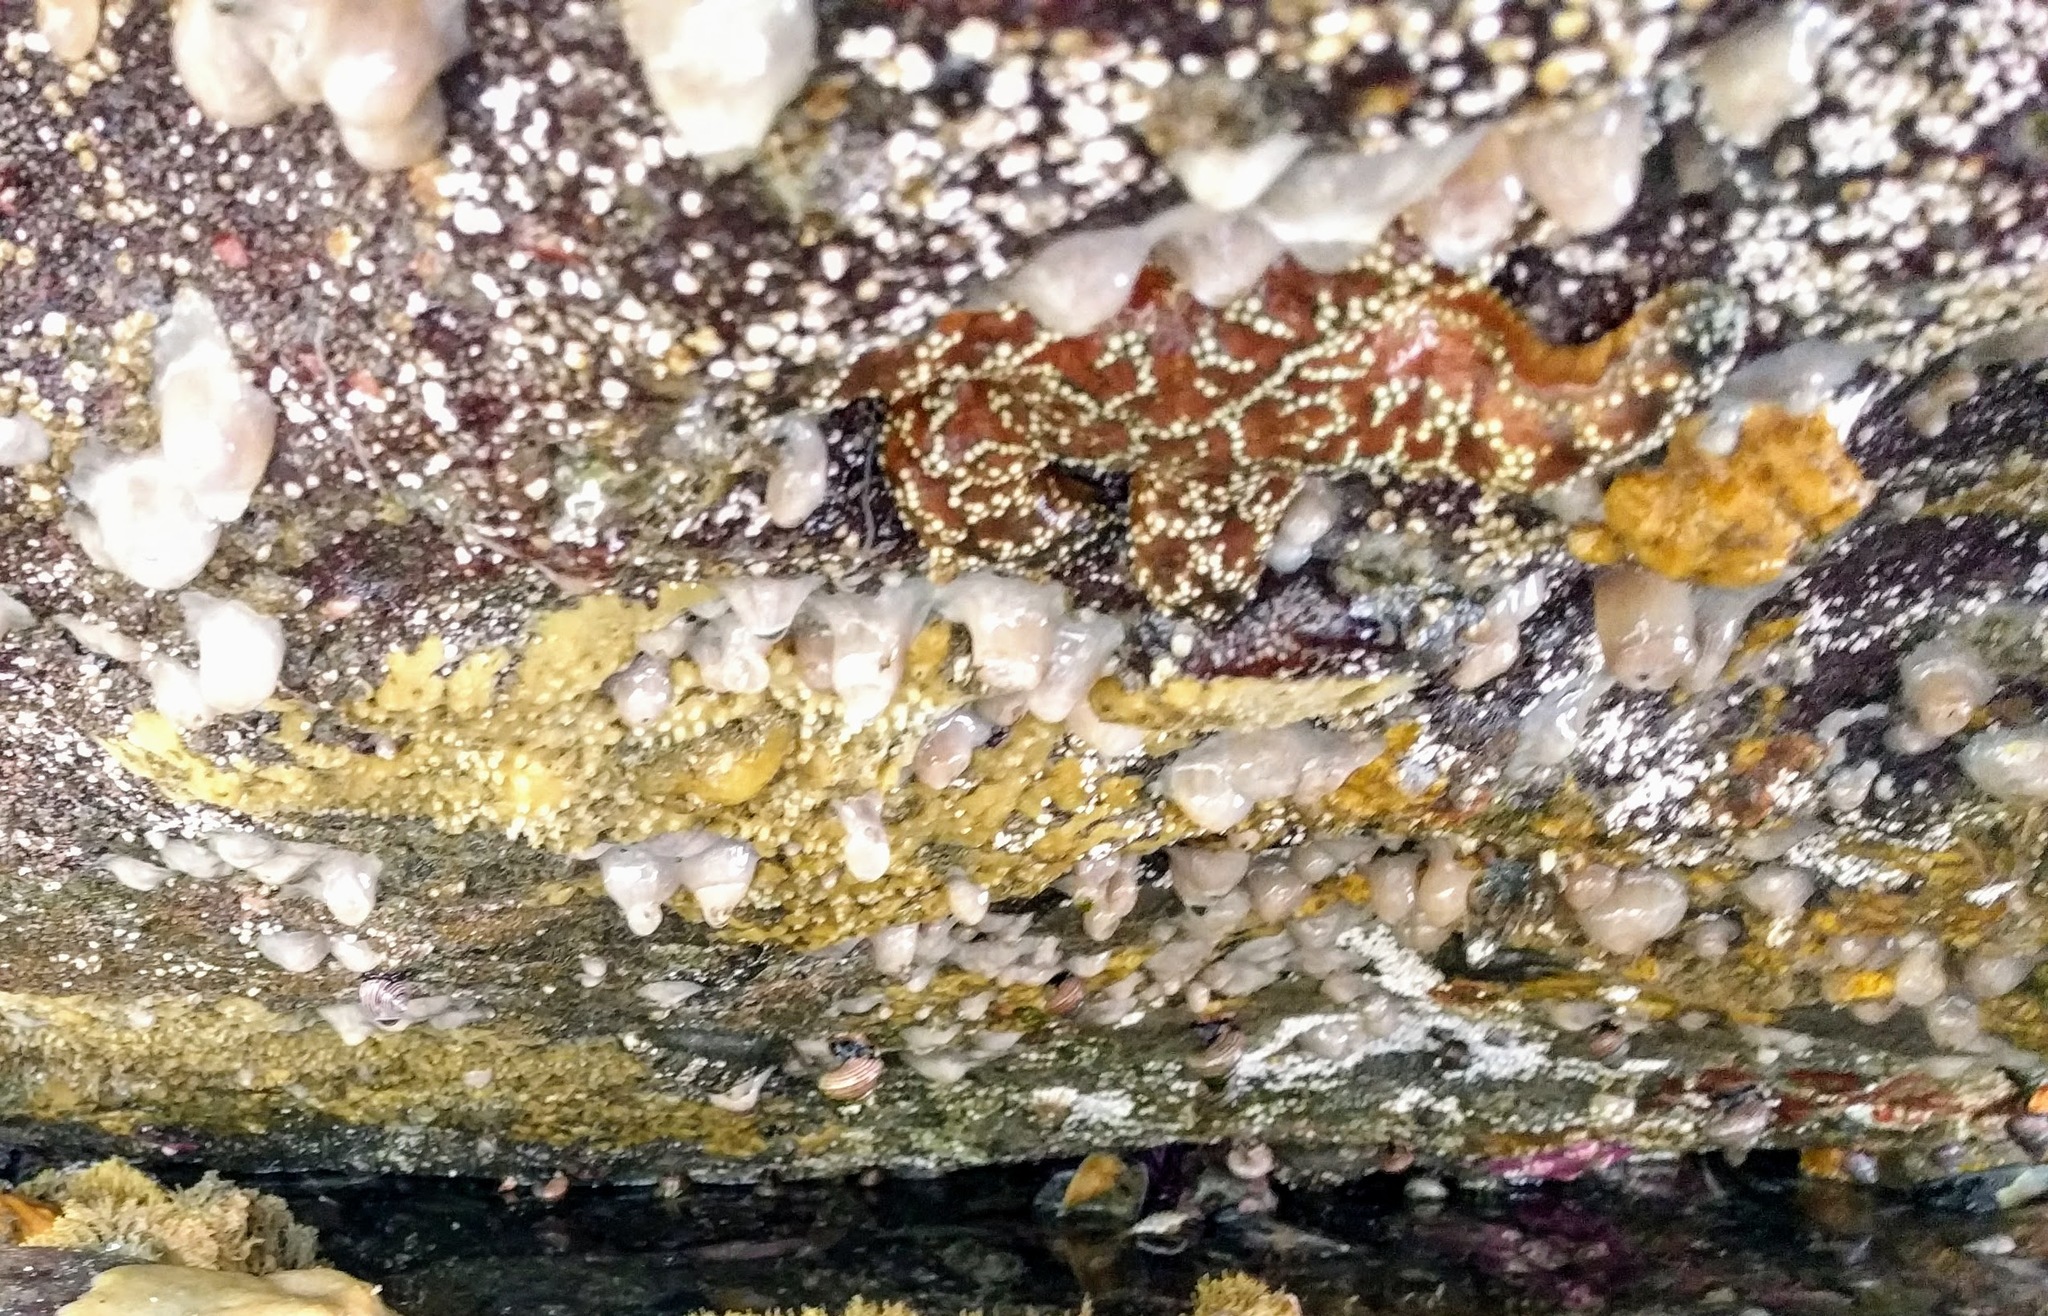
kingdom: Animalia
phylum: Echinodermata
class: Asteroidea
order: Forcipulatida
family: Asteriidae
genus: Pisaster
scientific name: Pisaster ochraceus
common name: Ochre stars
